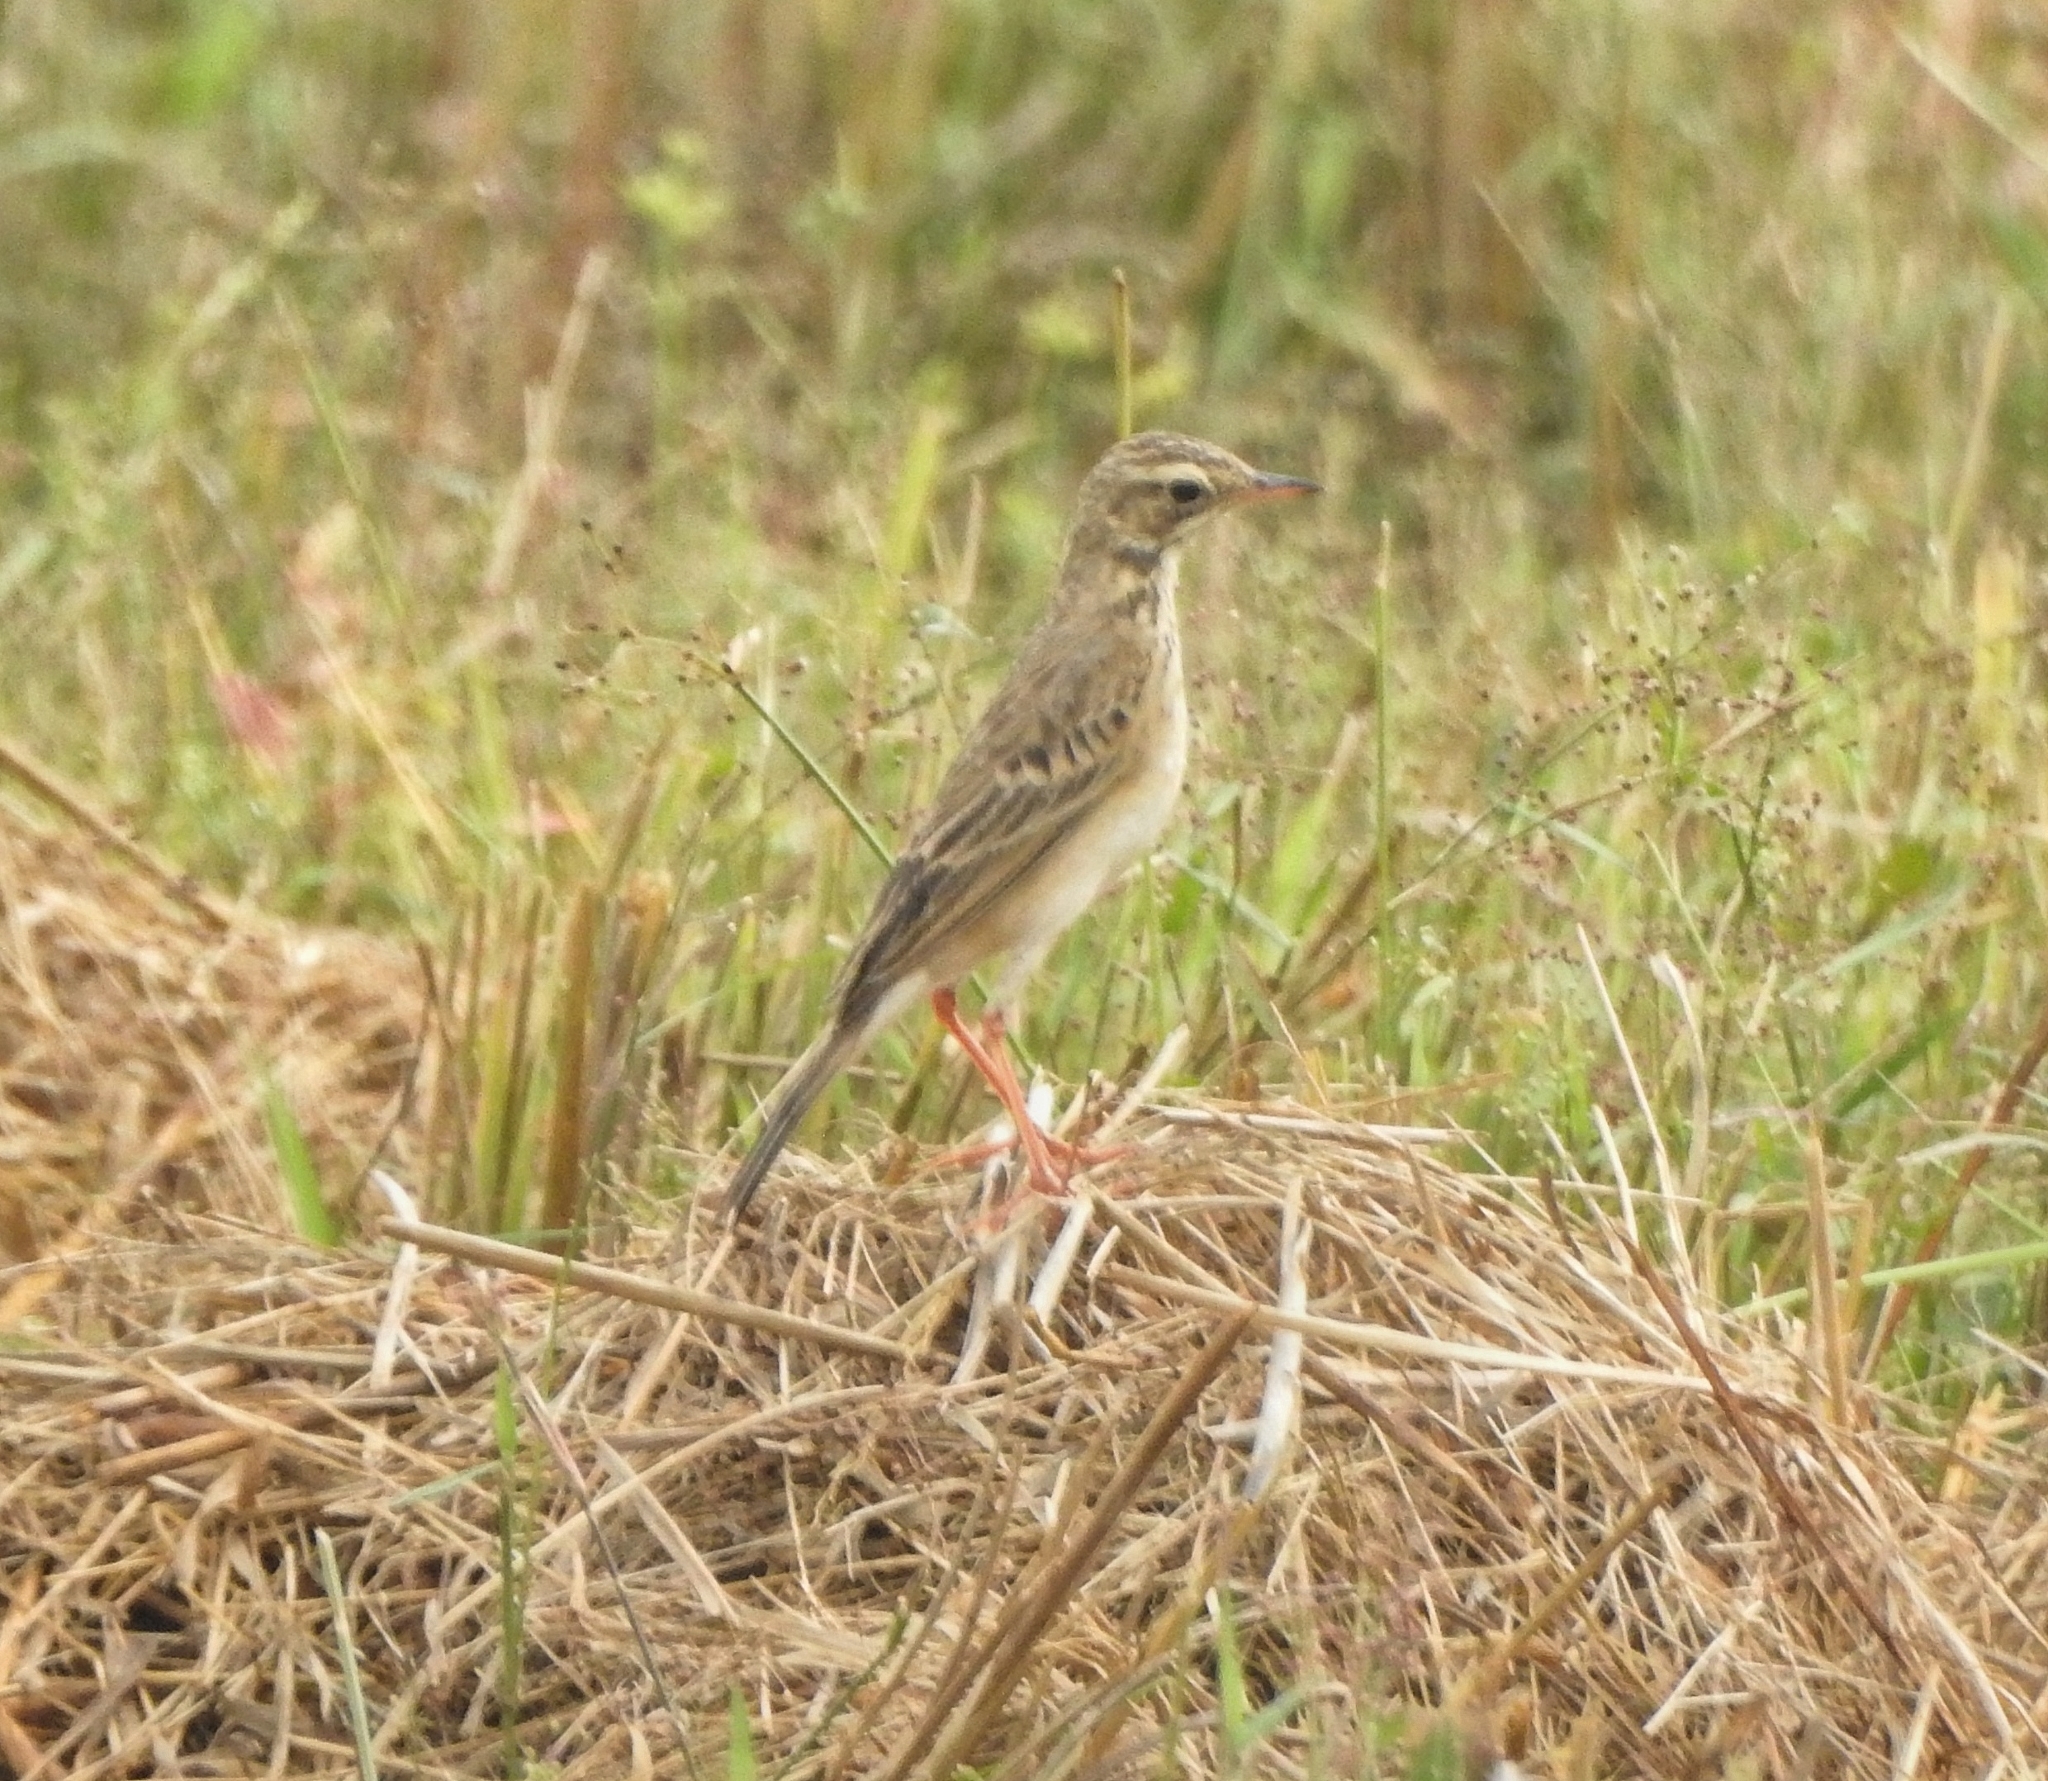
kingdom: Animalia
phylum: Chordata
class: Aves
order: Passeriformes
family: Motacillidae
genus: Anthus
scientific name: Anthus rufulus
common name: Paddyfield pipit
